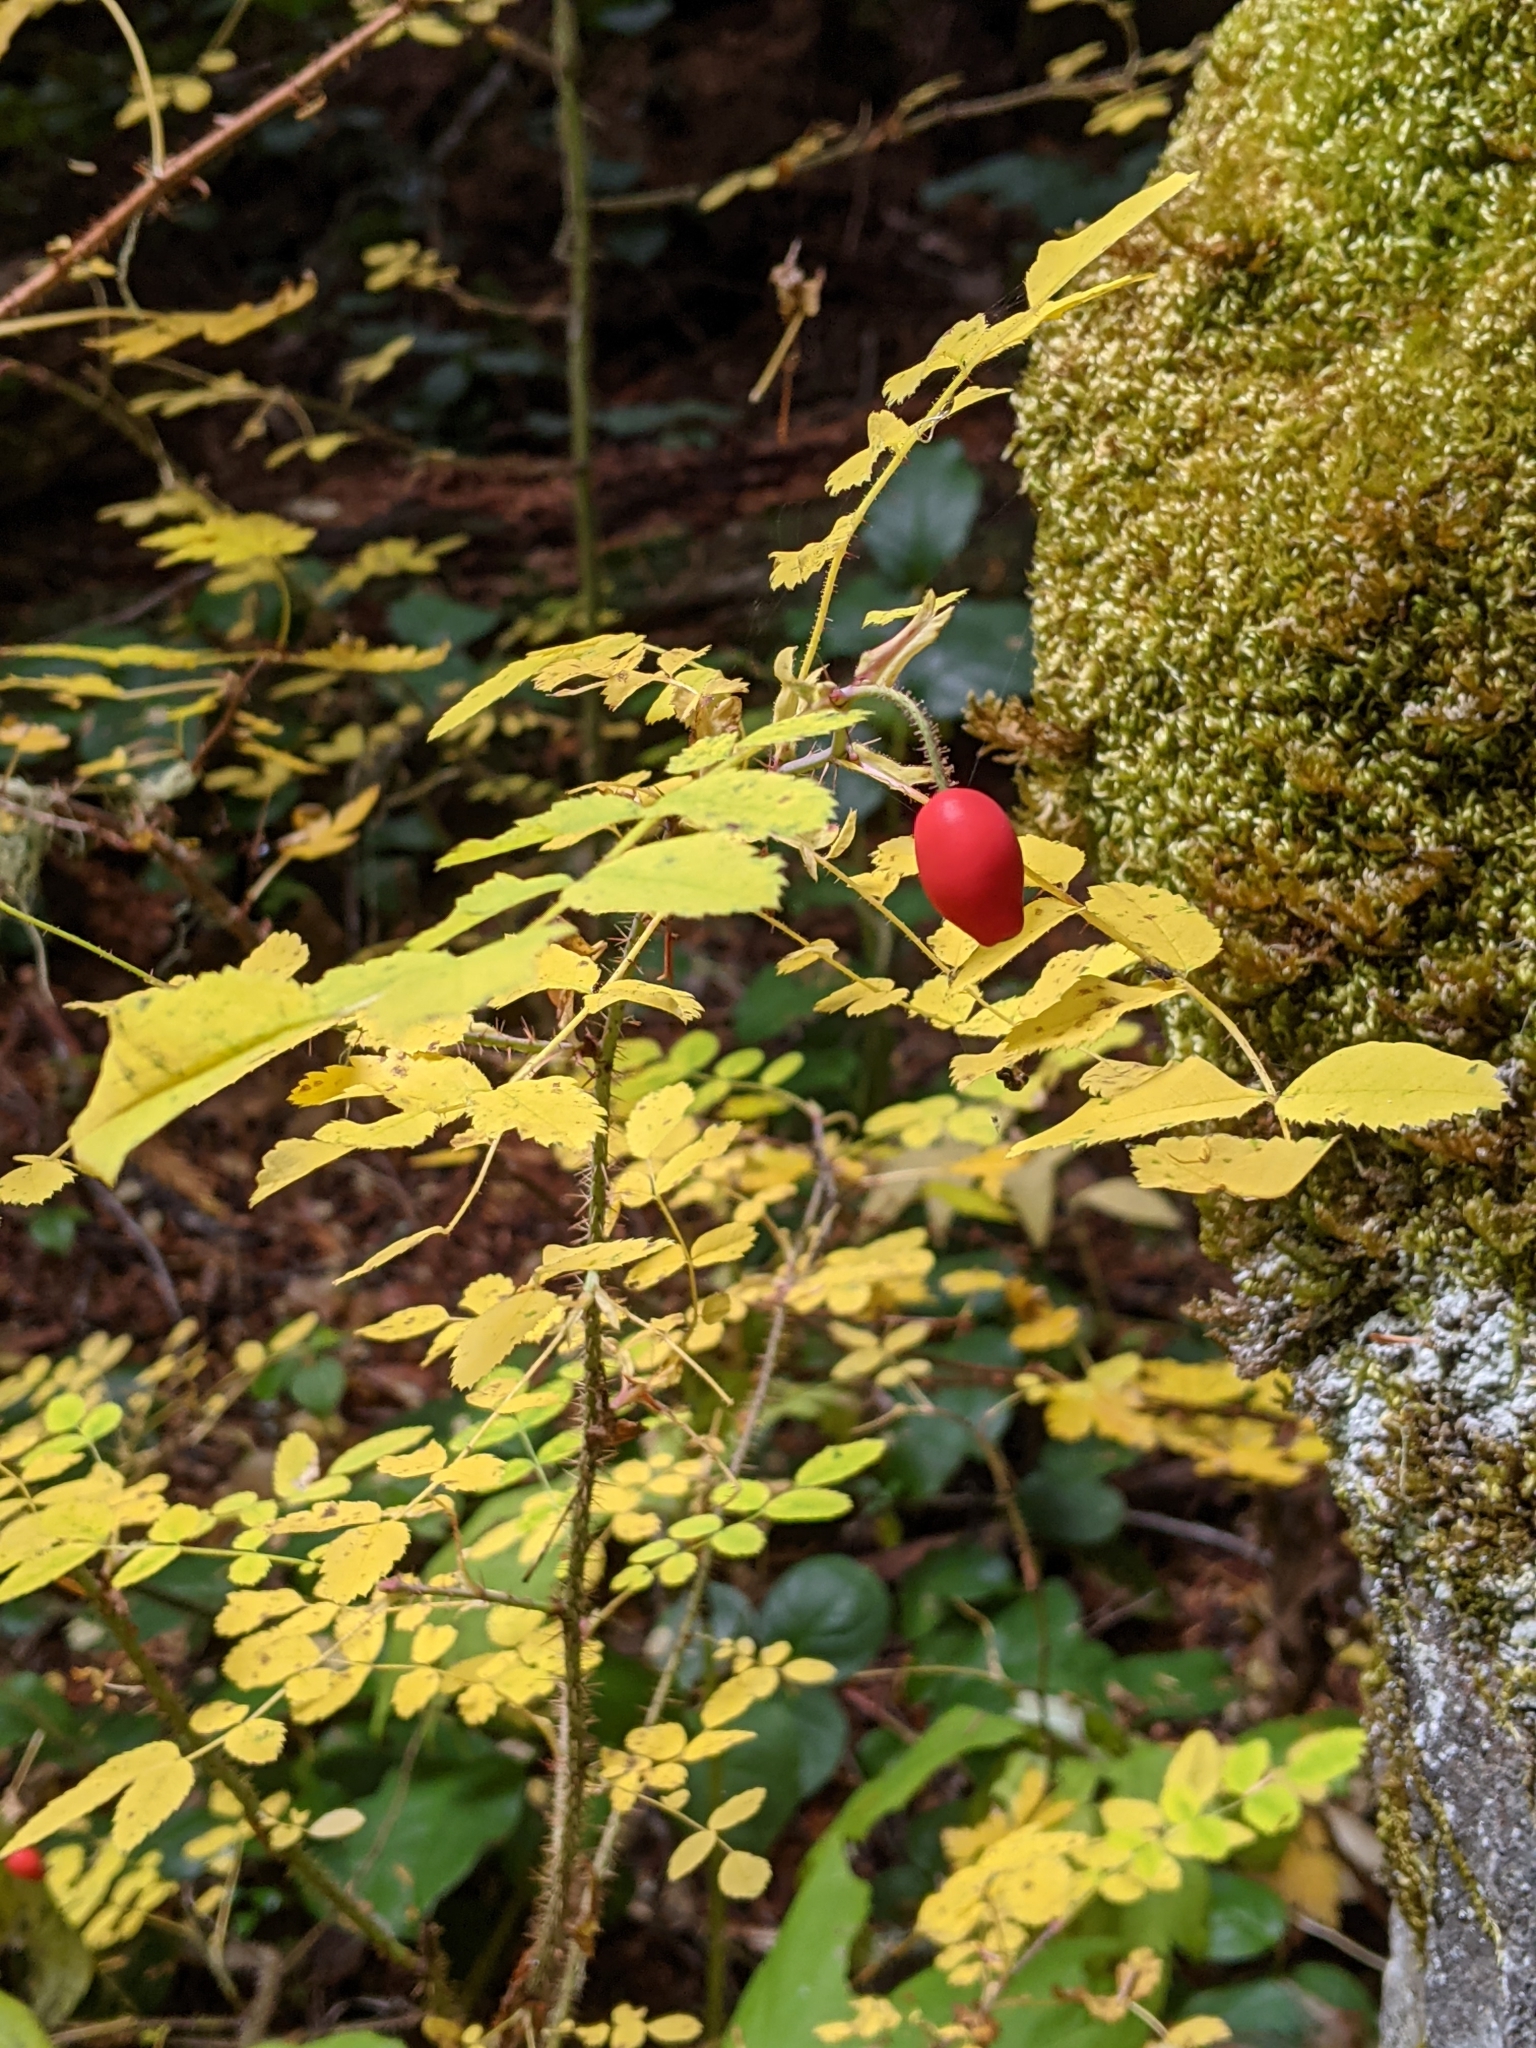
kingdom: Plantae
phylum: Tracheophyta
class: Magnoliopsida
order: Rosales
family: Rosaceae
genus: Rosa
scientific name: Rosa gymnocarpa
